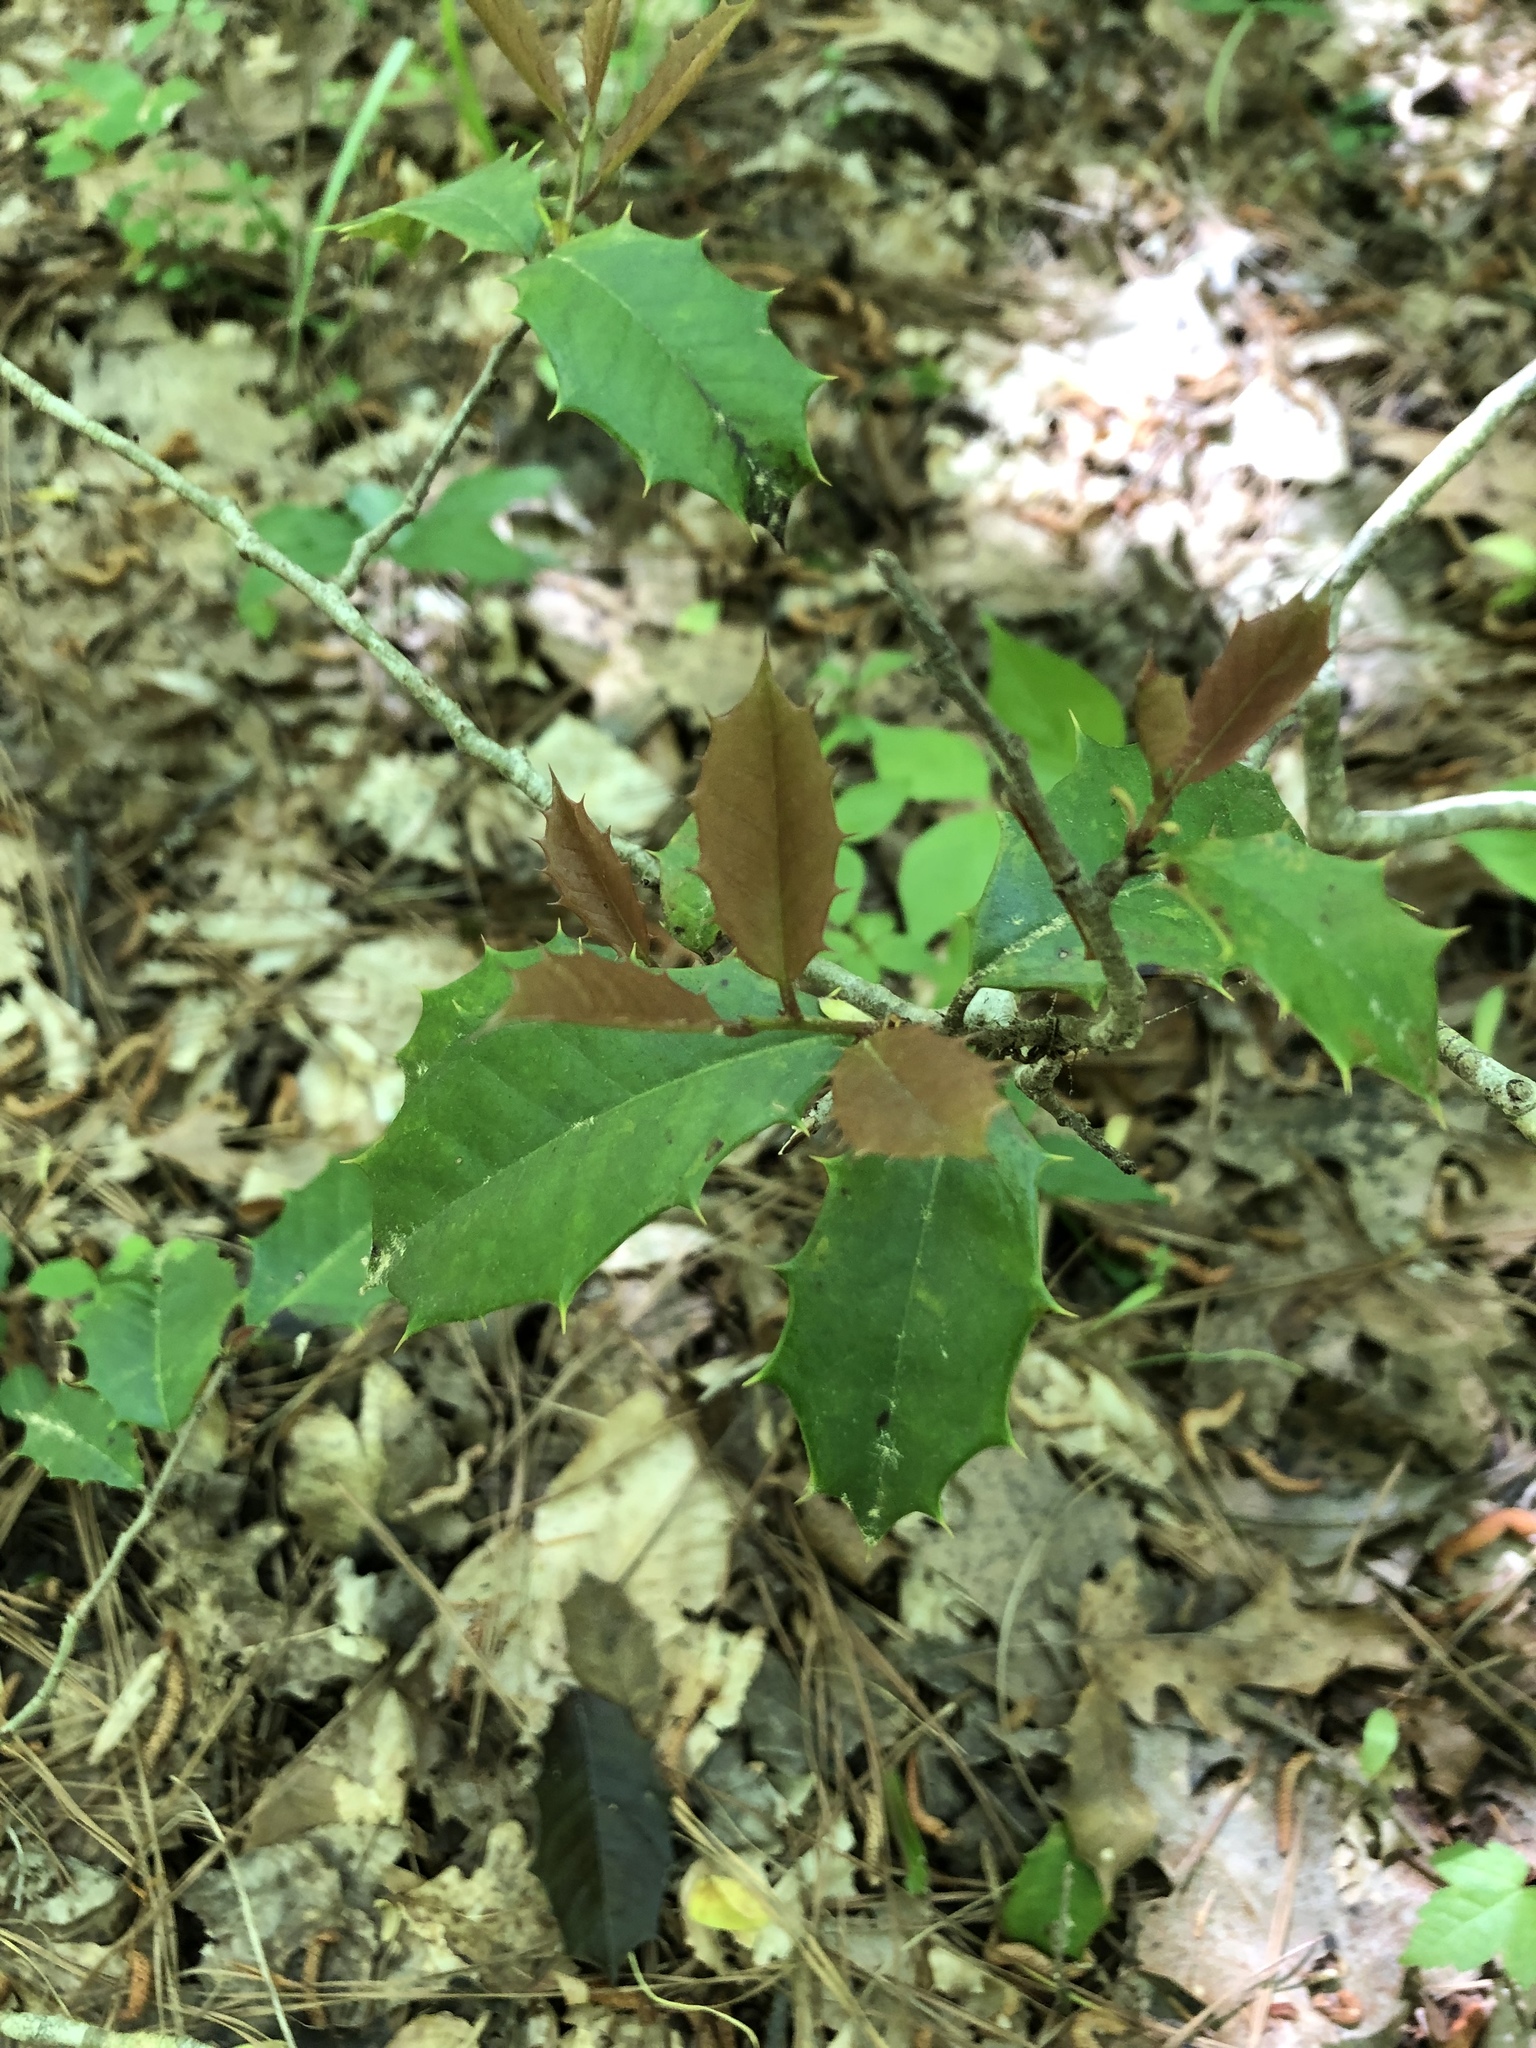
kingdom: Plantae
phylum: Tracheophyta
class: Magnoliopsida
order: Aquifoliales
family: Aquifoliaceae
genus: Ilex
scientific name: Ilex opaca
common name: American holly
